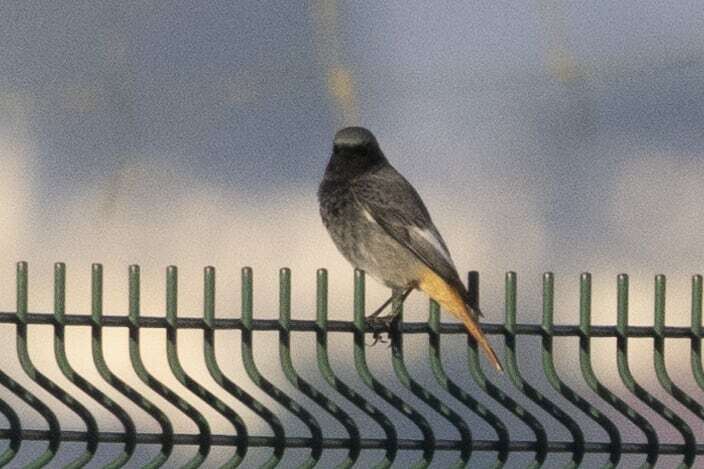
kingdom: Animalia
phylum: Chordata
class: Aves
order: Passeriformes
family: Muscicapidae
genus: Phoenicurus
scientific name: Phoenicurus ochruros
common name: Black redstart
